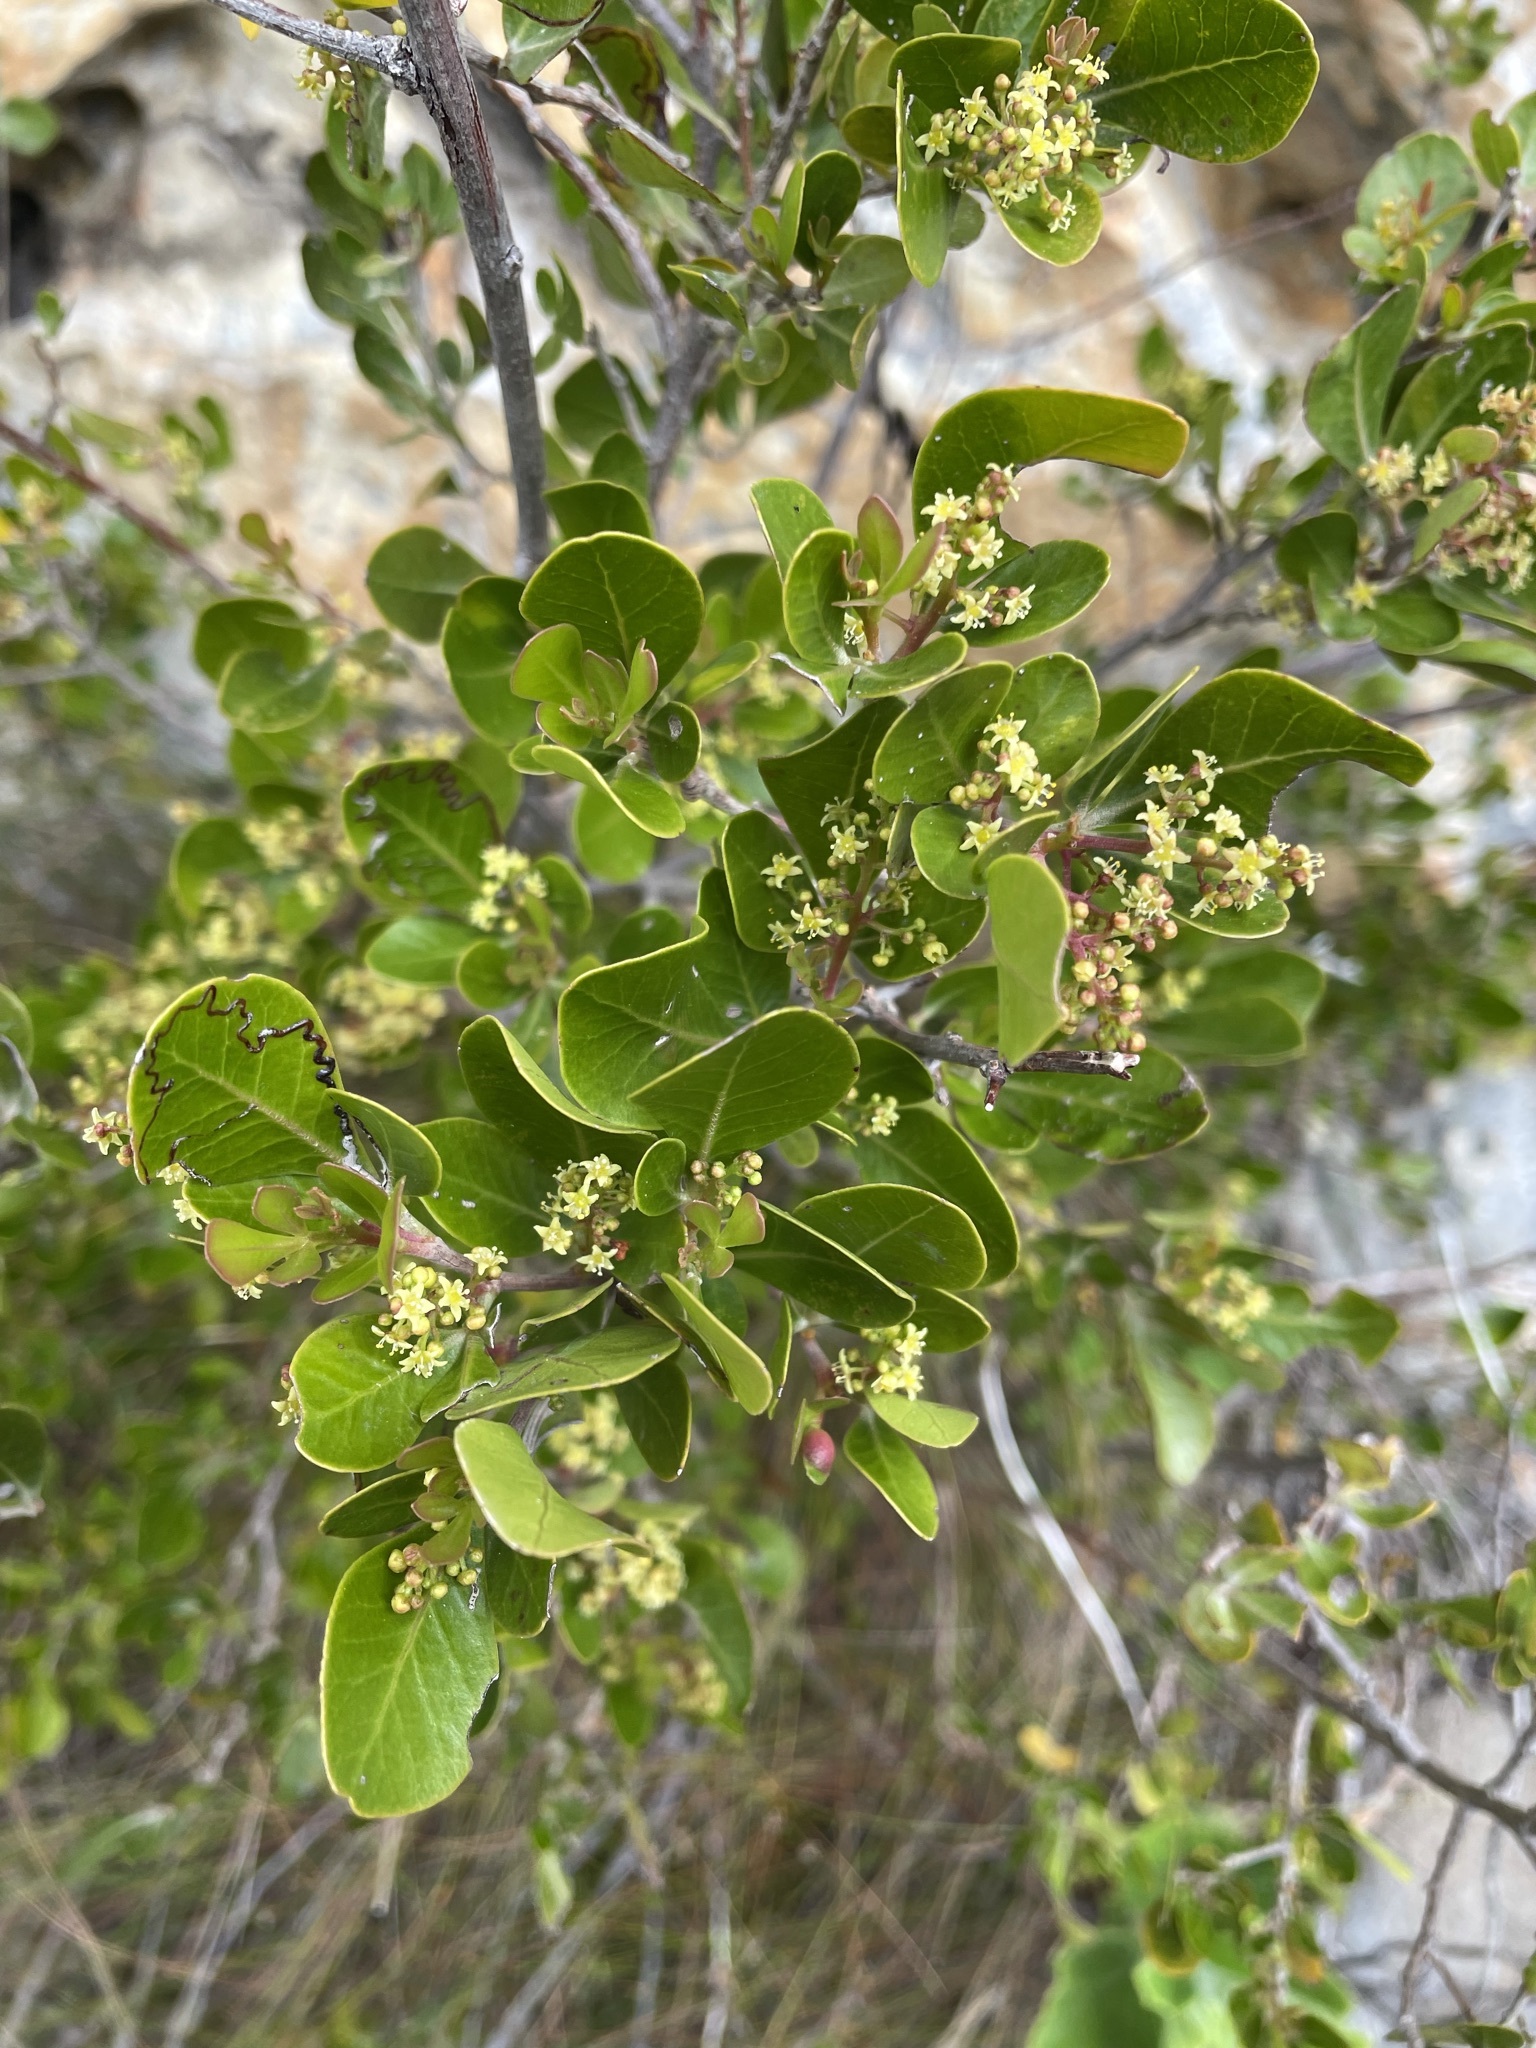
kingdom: Plantae
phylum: Tracheophyta
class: Magnoliopsida
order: Sapindales
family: Anacardiaceae
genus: Searsia
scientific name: Searsia lucida
